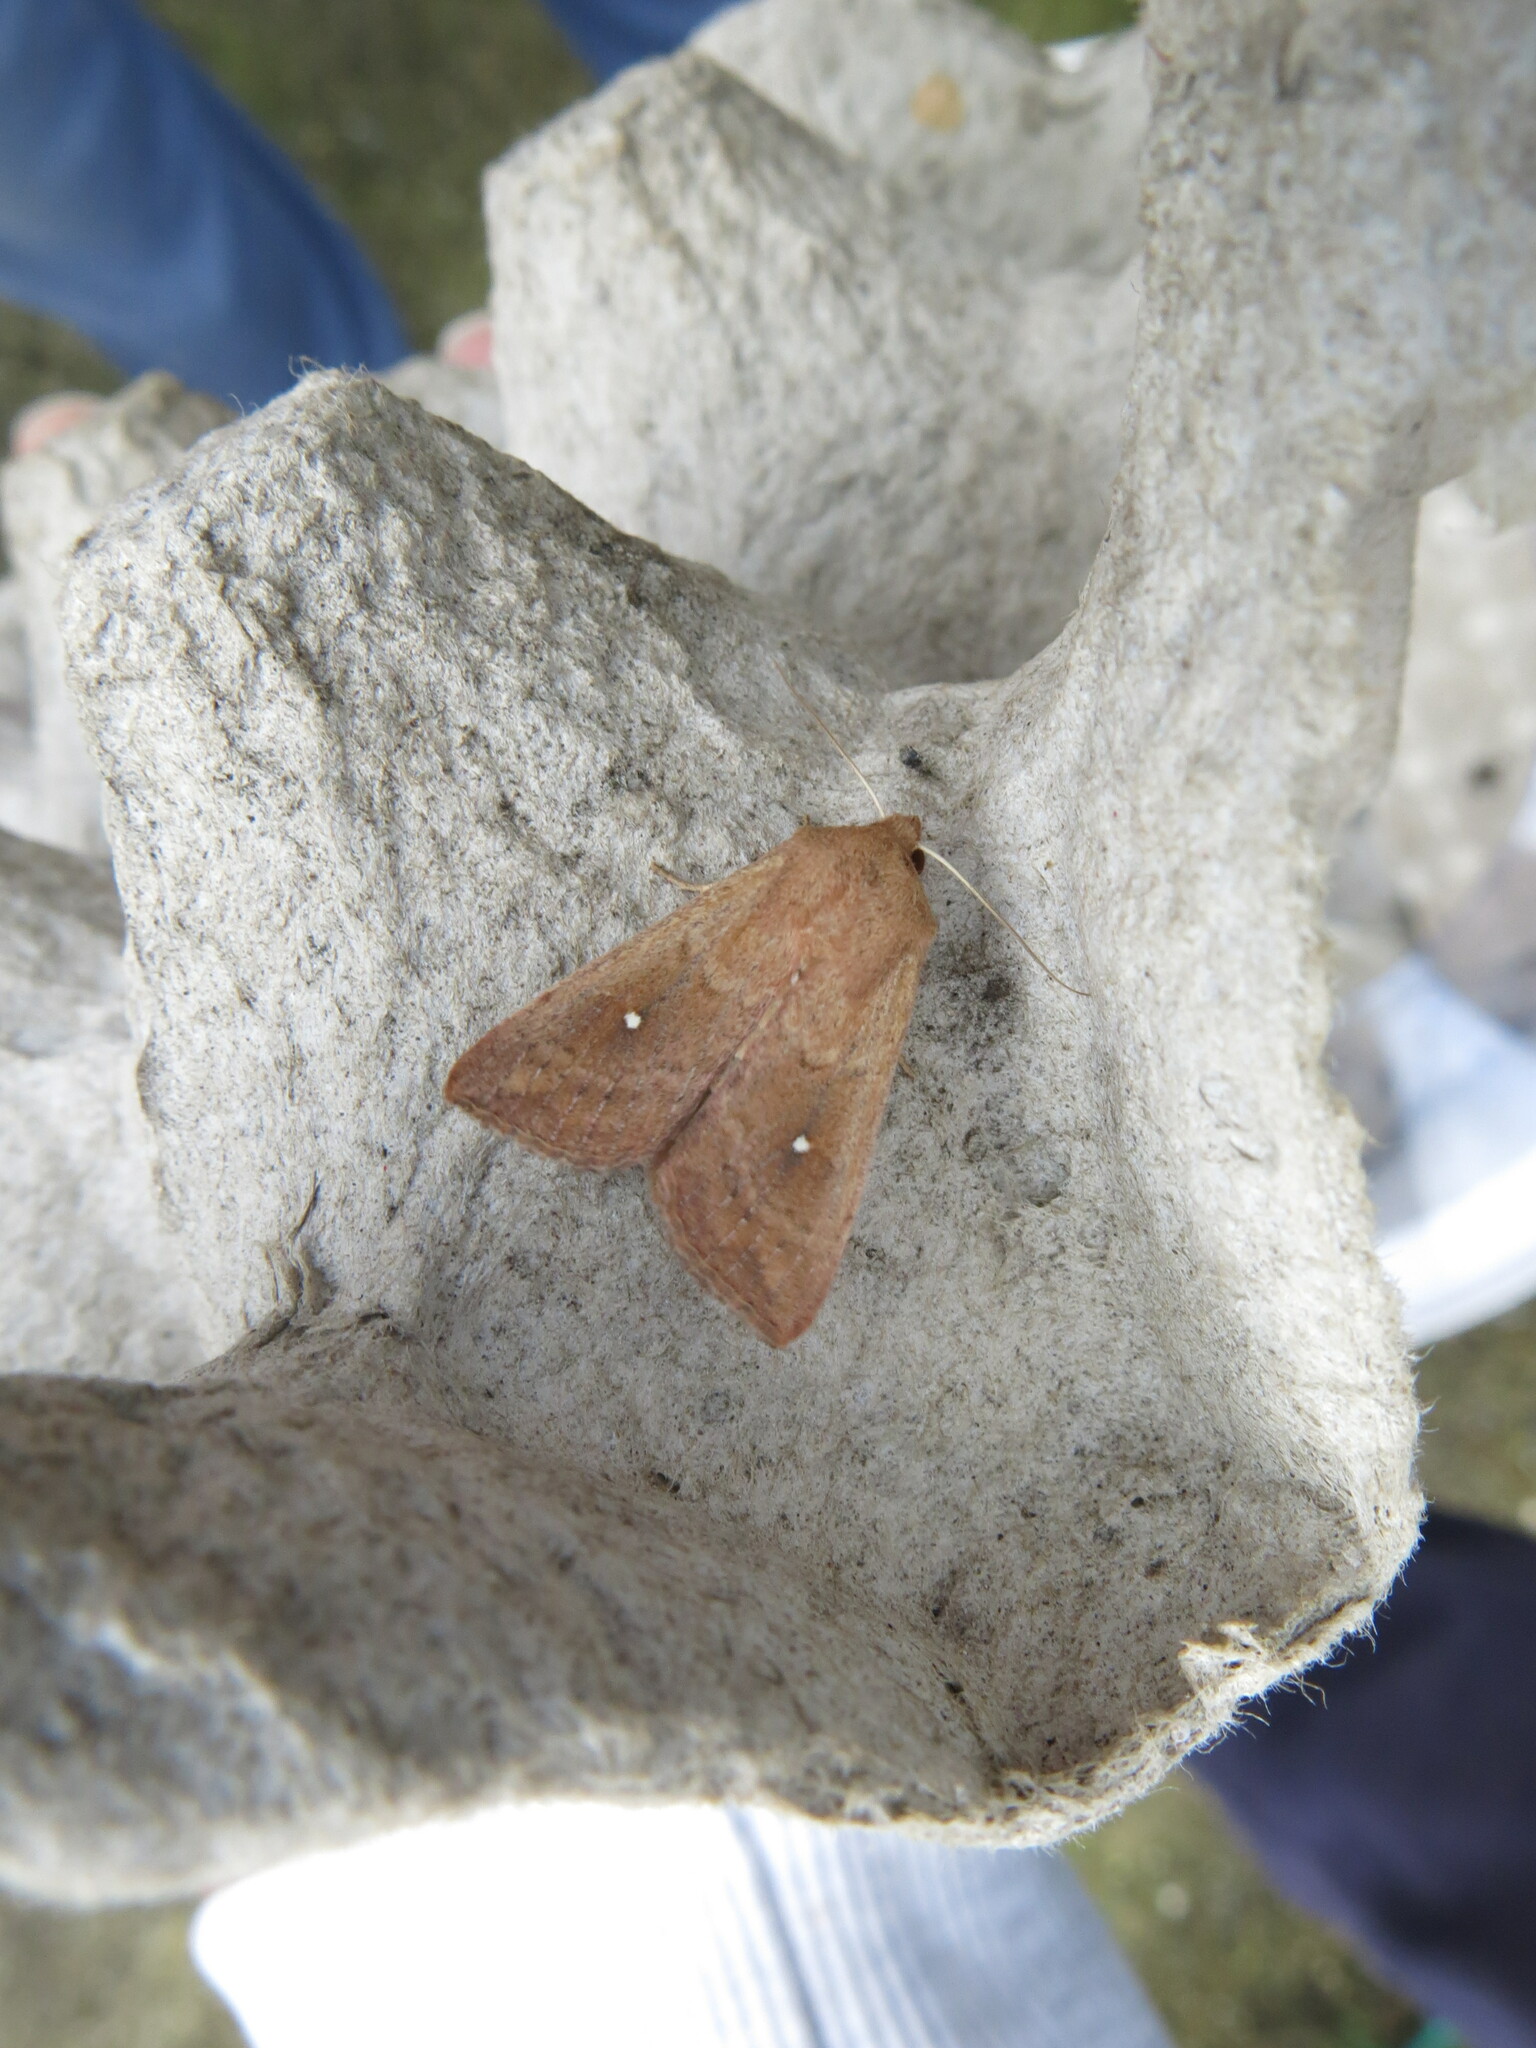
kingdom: Animalia
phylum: Arthropoda
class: Insecta
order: Lepidoptera
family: Noctuidae
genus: Mythimna
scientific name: Mythimna albipuncta
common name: White-point
